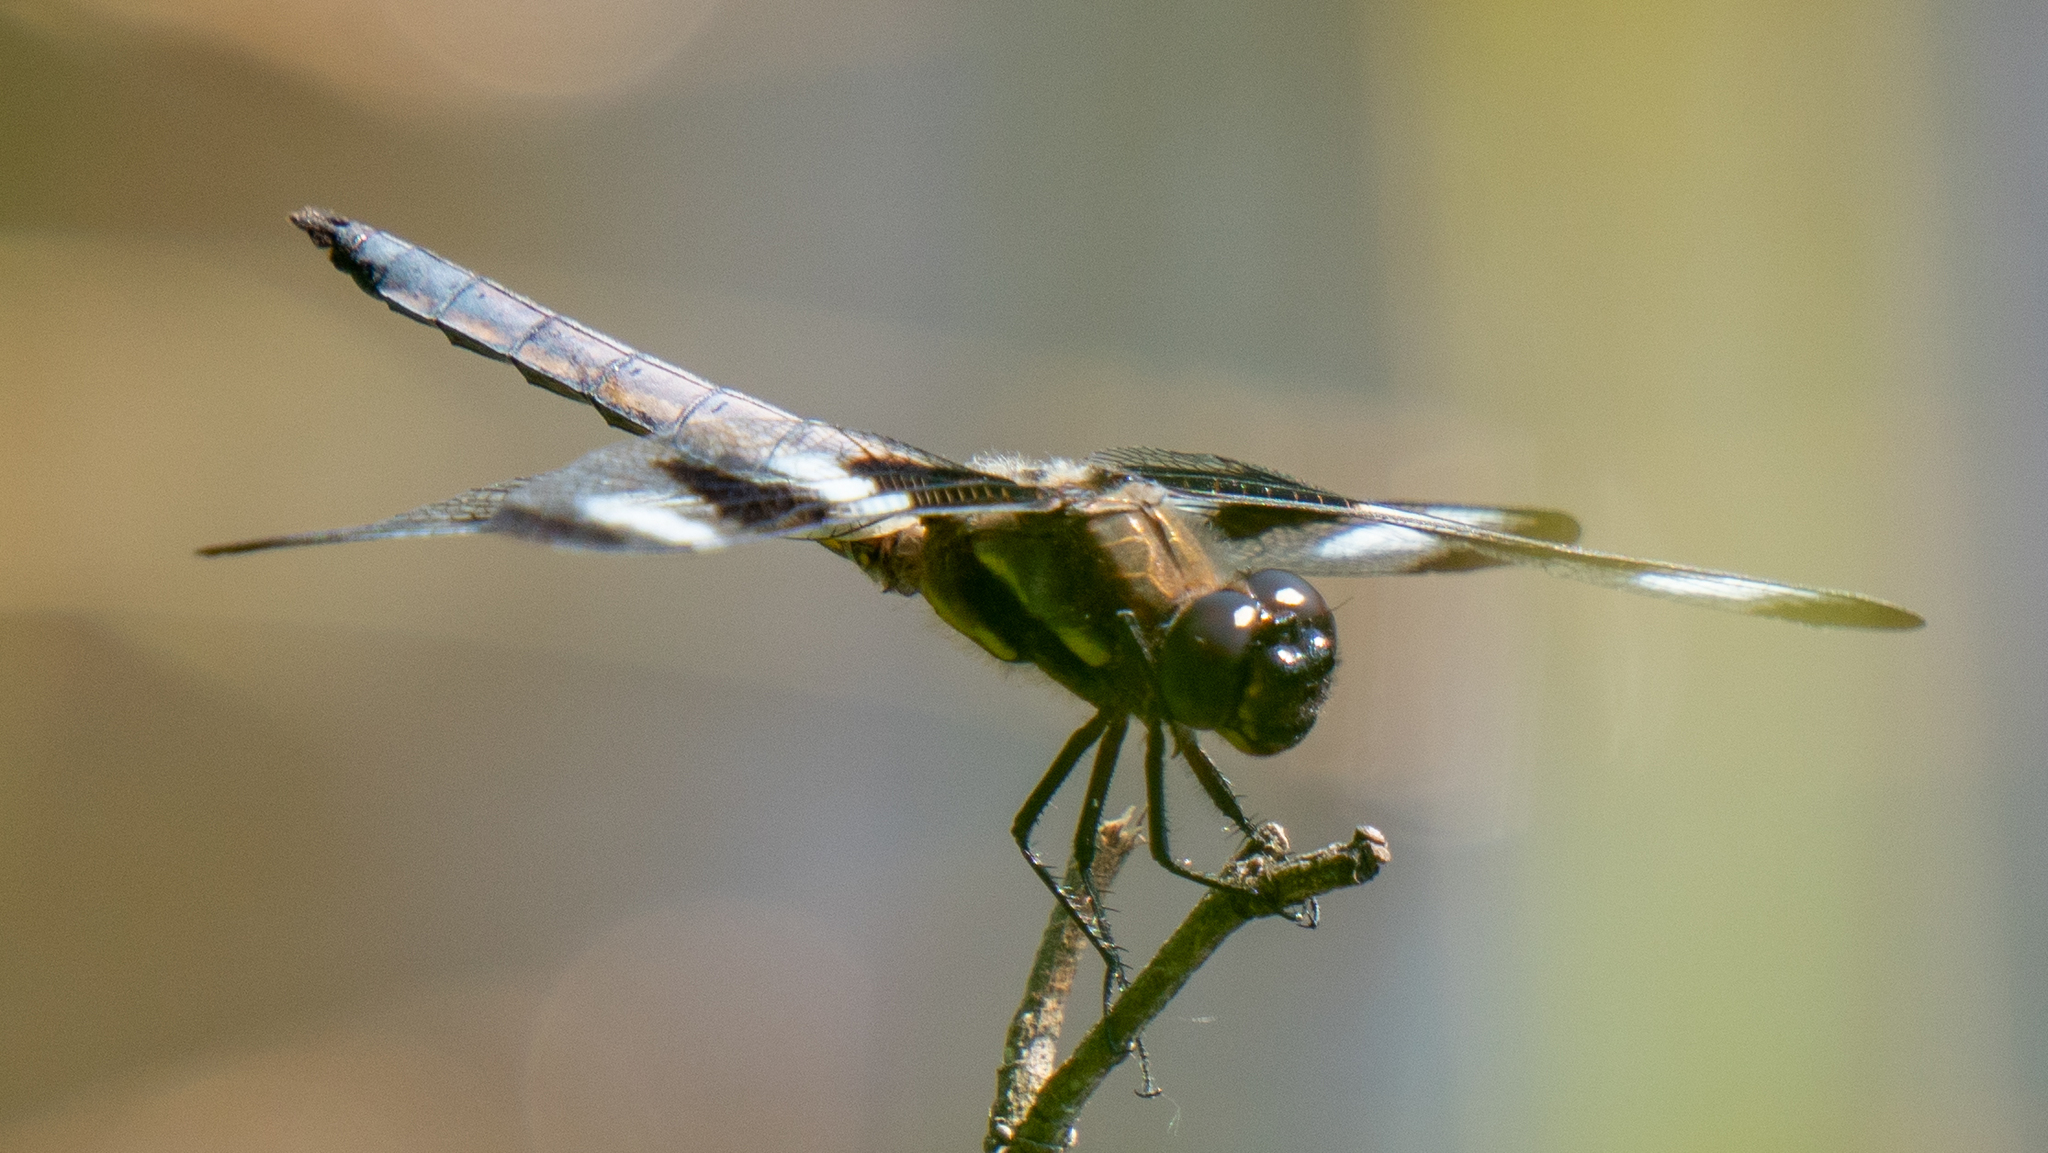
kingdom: Animalia
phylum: Arthropoda
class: Insecta
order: Odonata
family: Libellulidae
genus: Libellula
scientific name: Libellula pulchella
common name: Twelve-spotted skimmer
